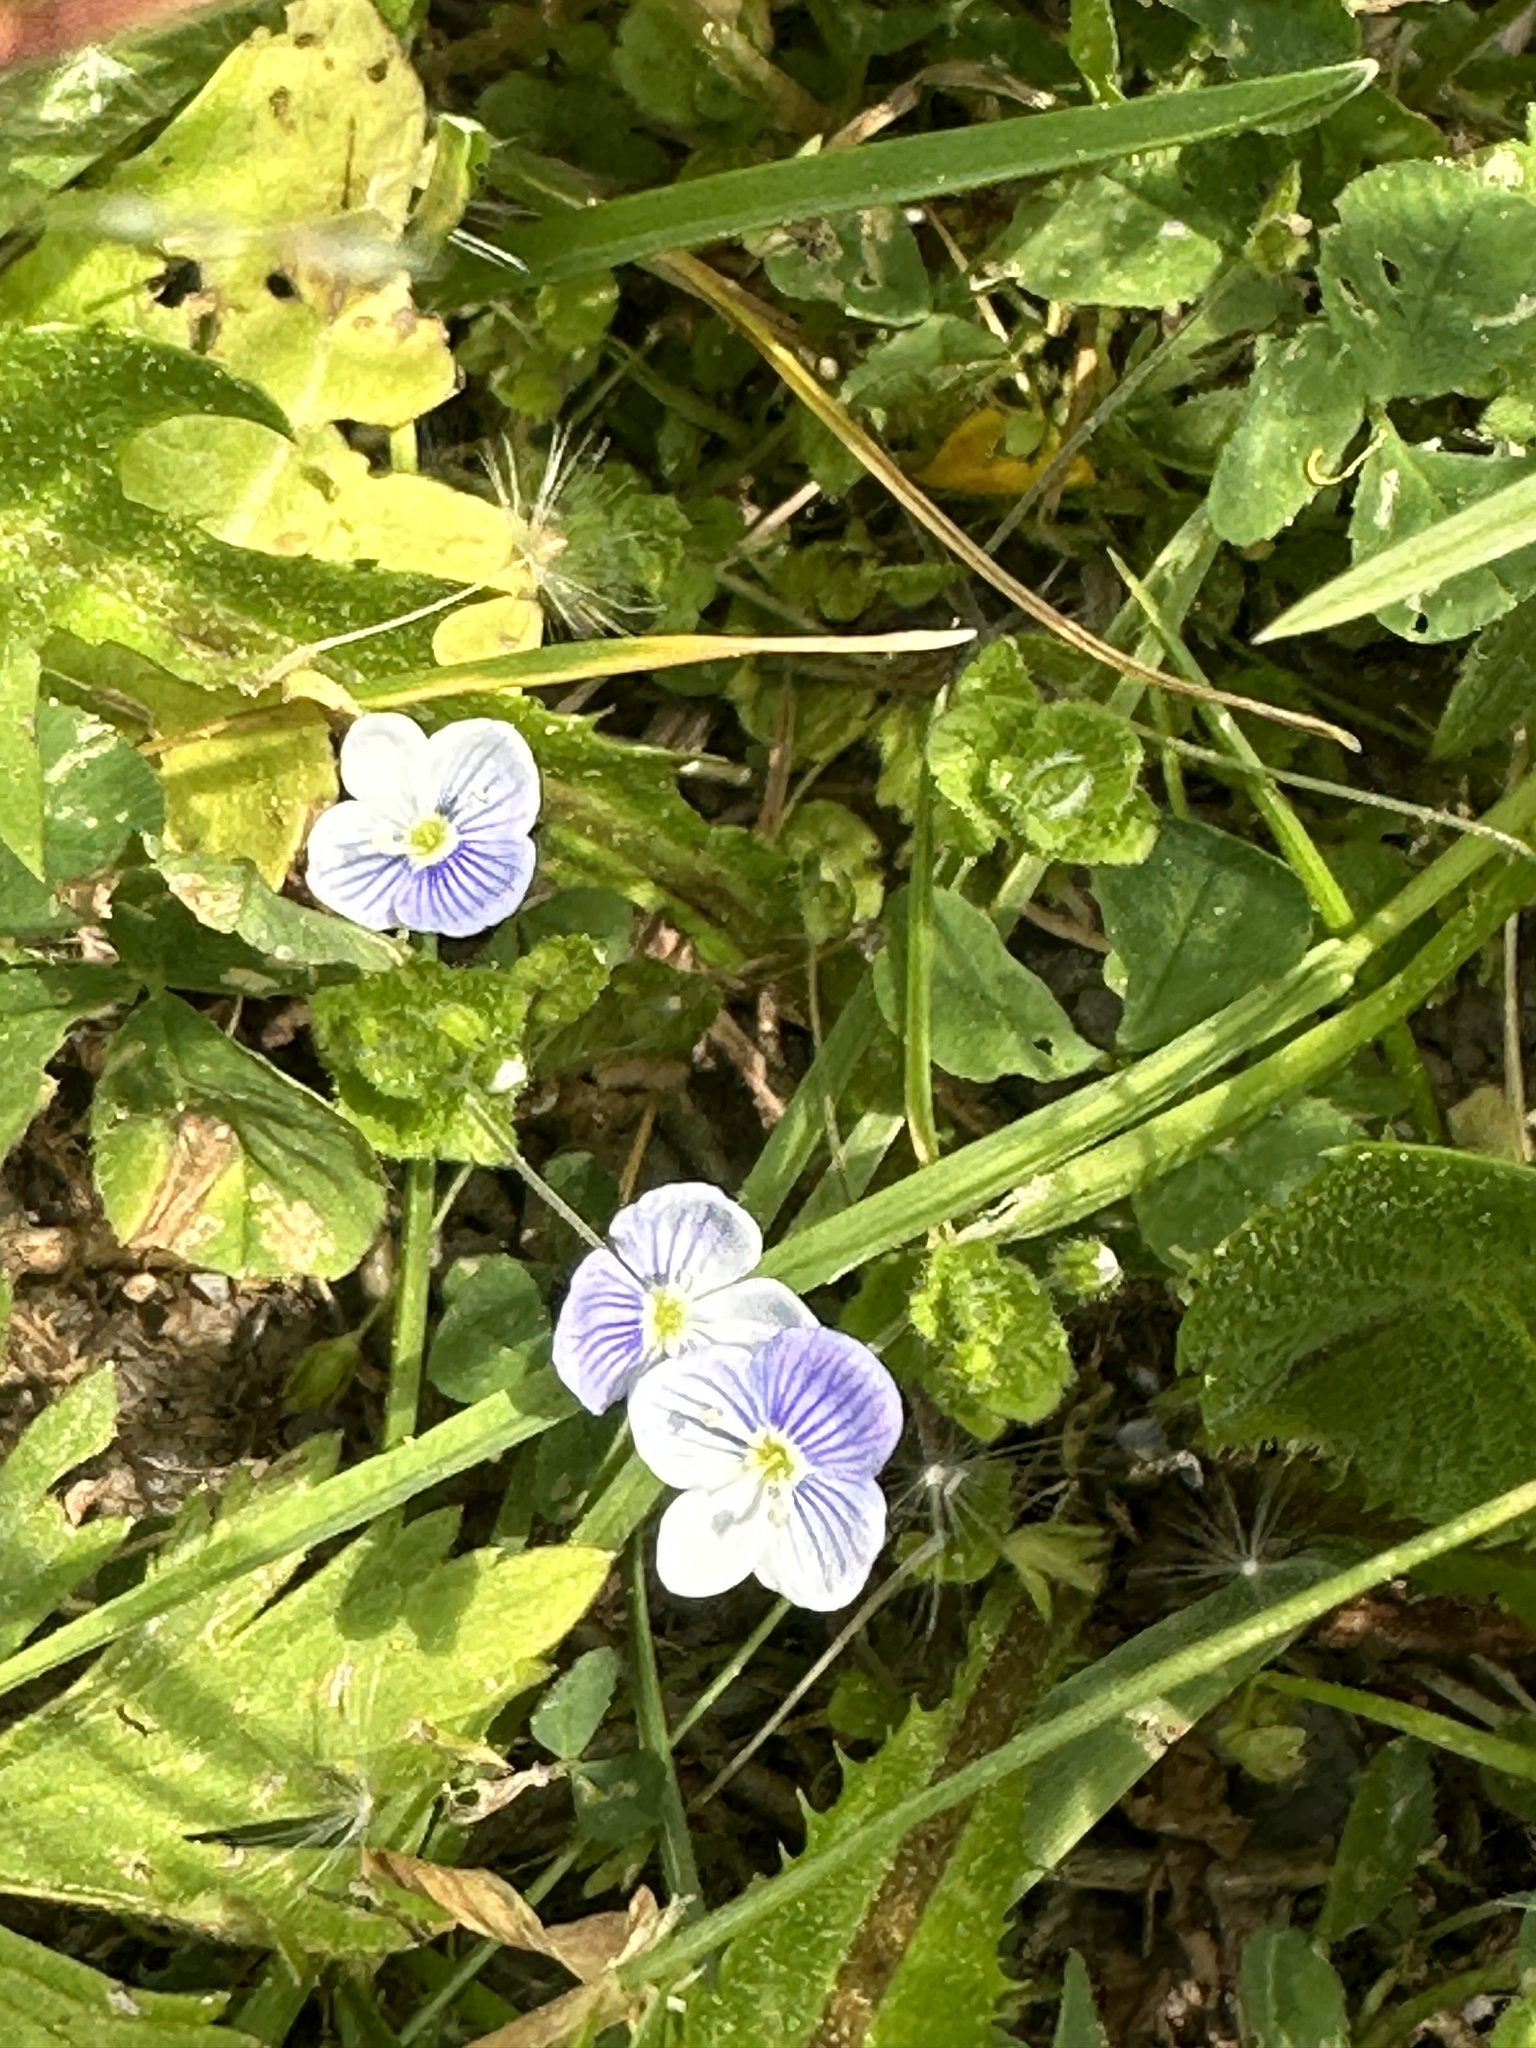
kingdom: Plantae
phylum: Tracheophyta
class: Magnoliopsida
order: Lamiales
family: Plantaginaceae
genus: Veronica
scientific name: Veronica filiformis
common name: Slender speedwell
